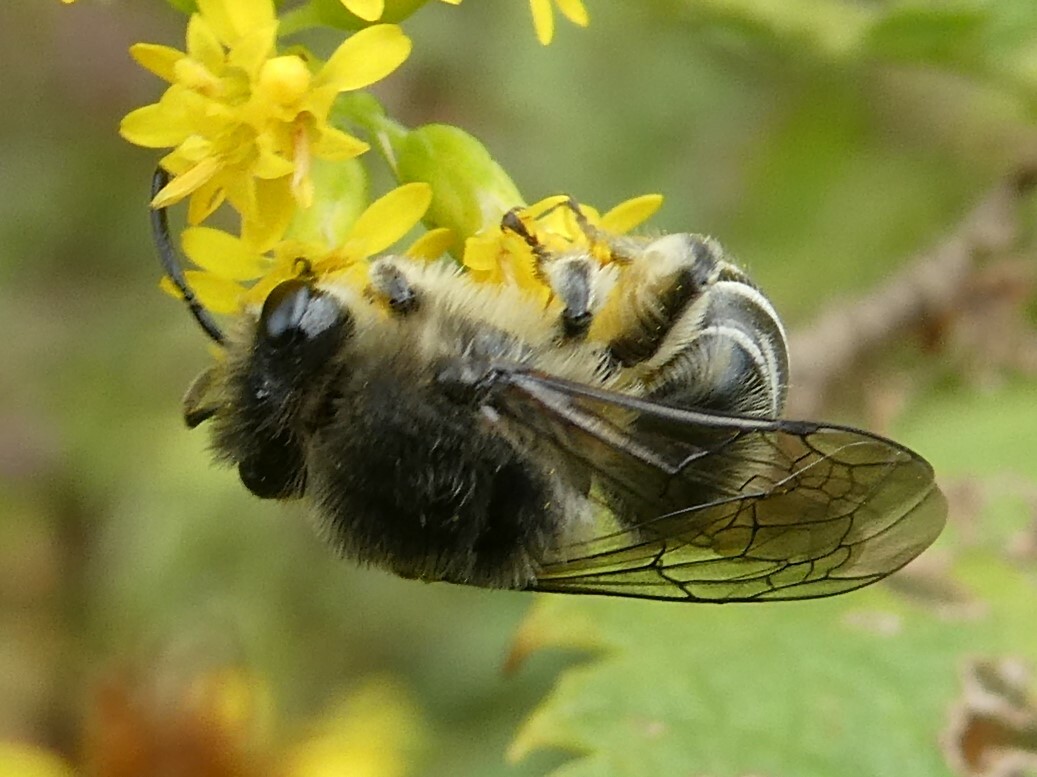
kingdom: Animalia
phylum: Arthropoda
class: Insecta
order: Hymenoptera
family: Colletidae
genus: Colletes
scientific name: Colletes compactus
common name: Aster cellophane bee
